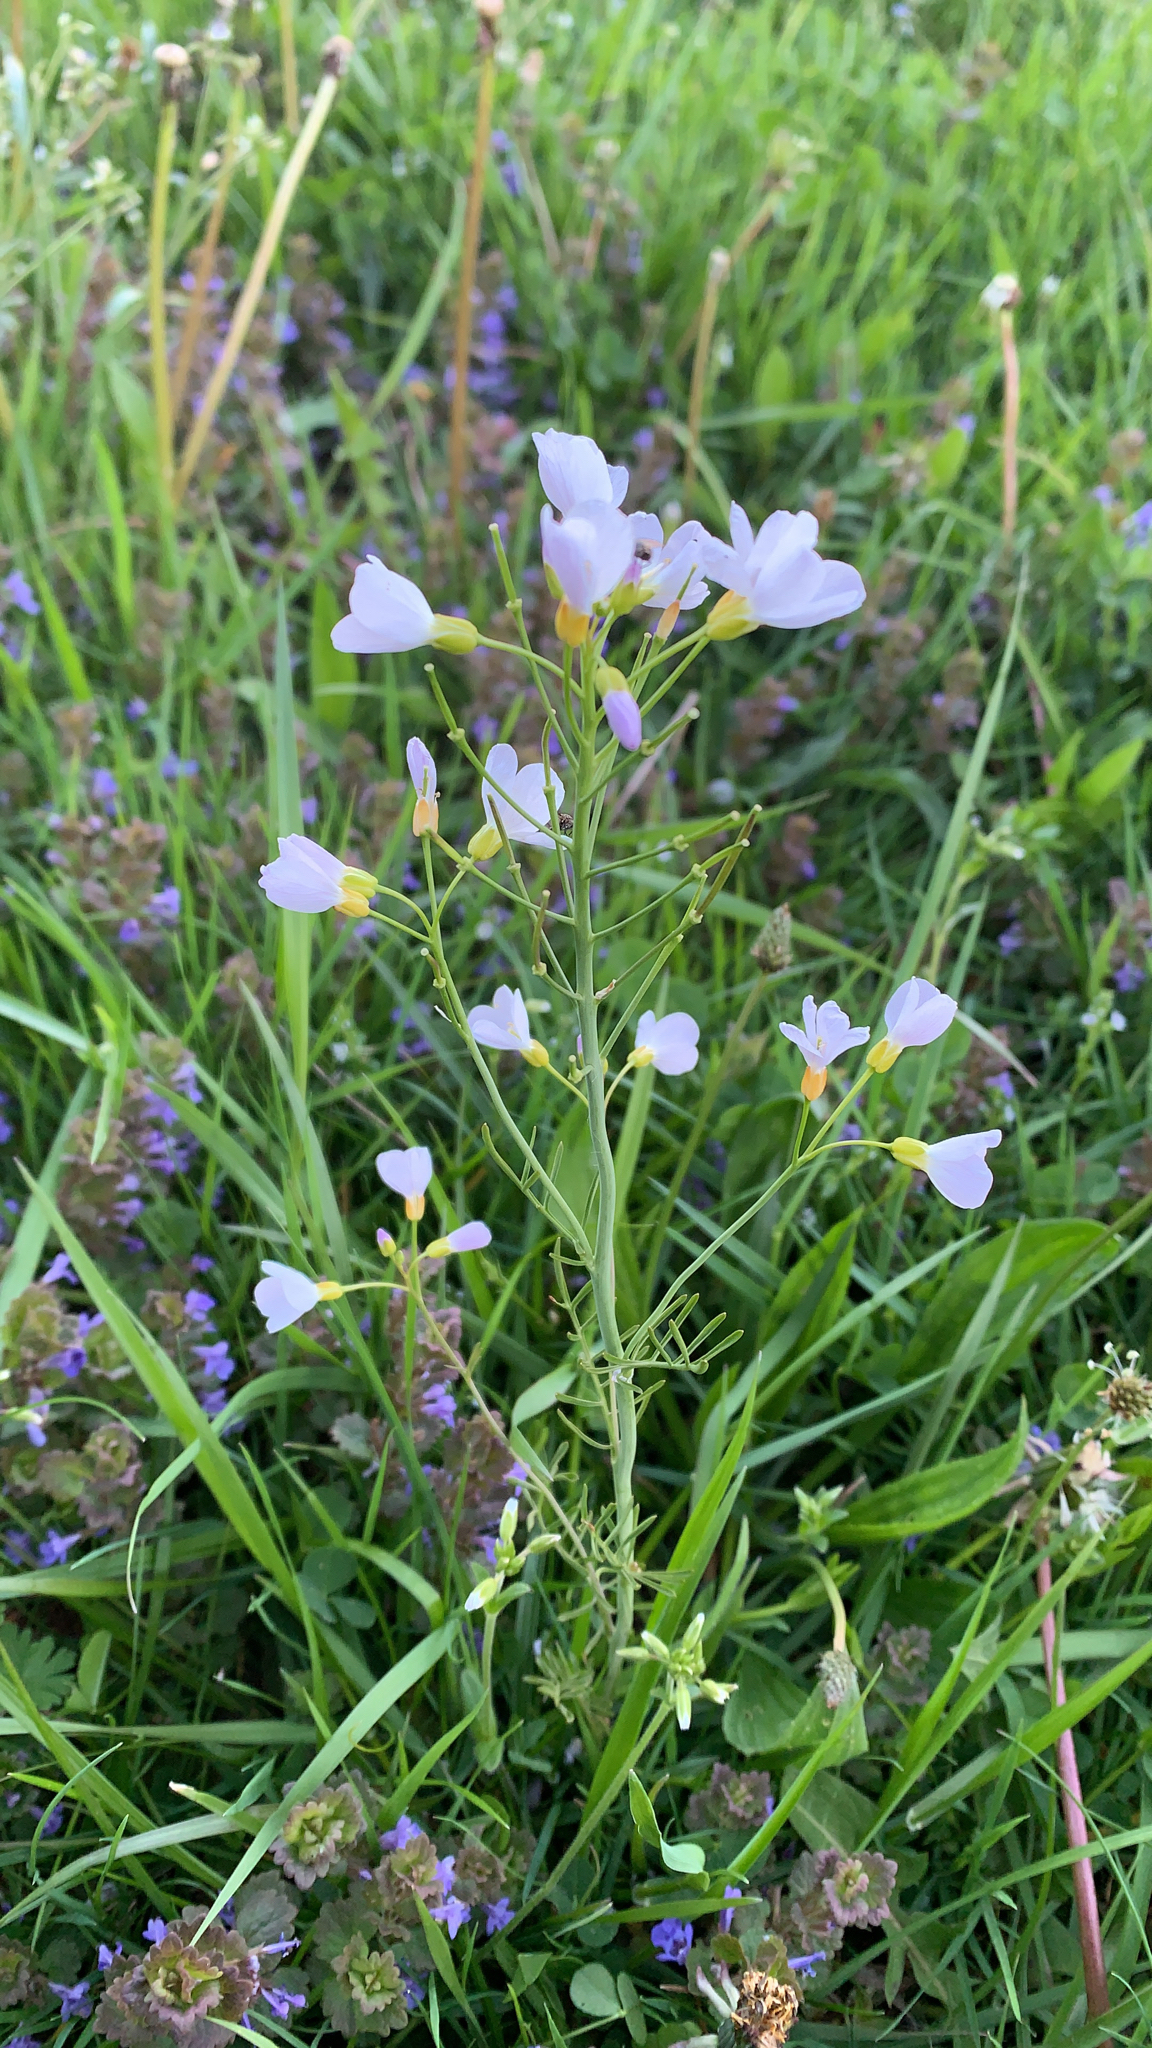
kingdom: Plantae
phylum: Tracheophyta
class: Magnoliopsida
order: Brassicales
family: Brassicaceae
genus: Cardamine
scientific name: Cardamine pratensis
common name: Cuckoo flower
